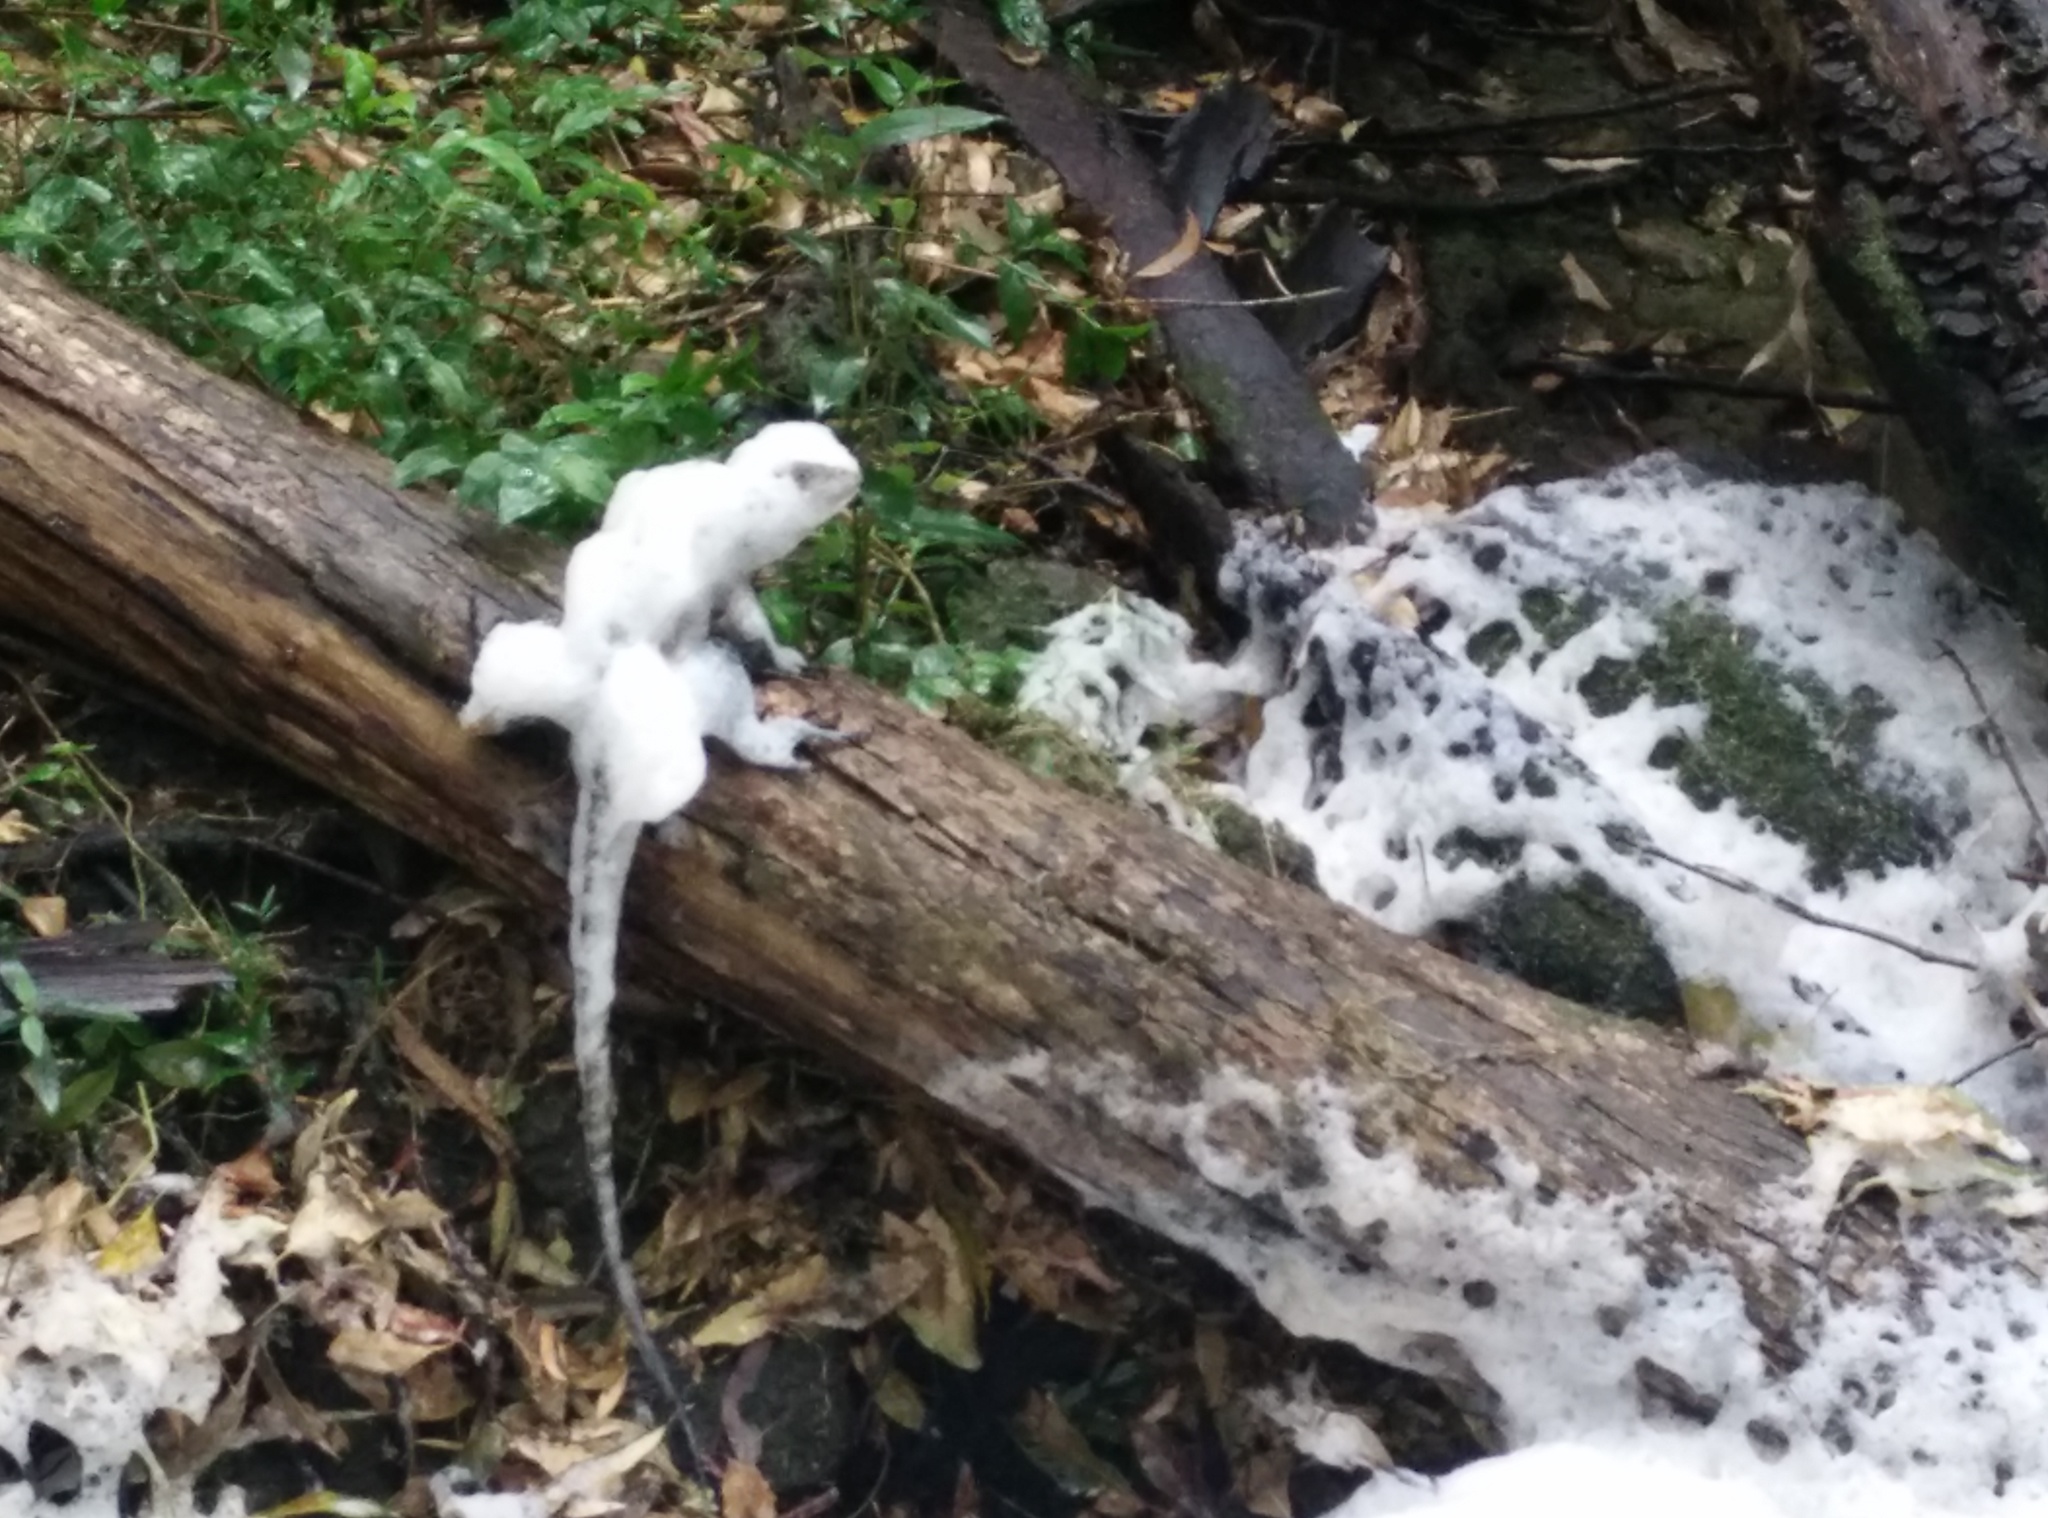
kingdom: Animalia
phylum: Chordata
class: Squamata
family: Agamidae
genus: Intellagama
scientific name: Intellagama lesueurii
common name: Eastern water dragon
